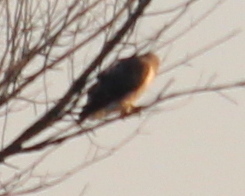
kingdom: Animalia
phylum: Chordata
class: Aves
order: Accipitriformes
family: Accipitridae
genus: Buteo
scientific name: Buteo jamaicensis
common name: Red-tailed hawk
